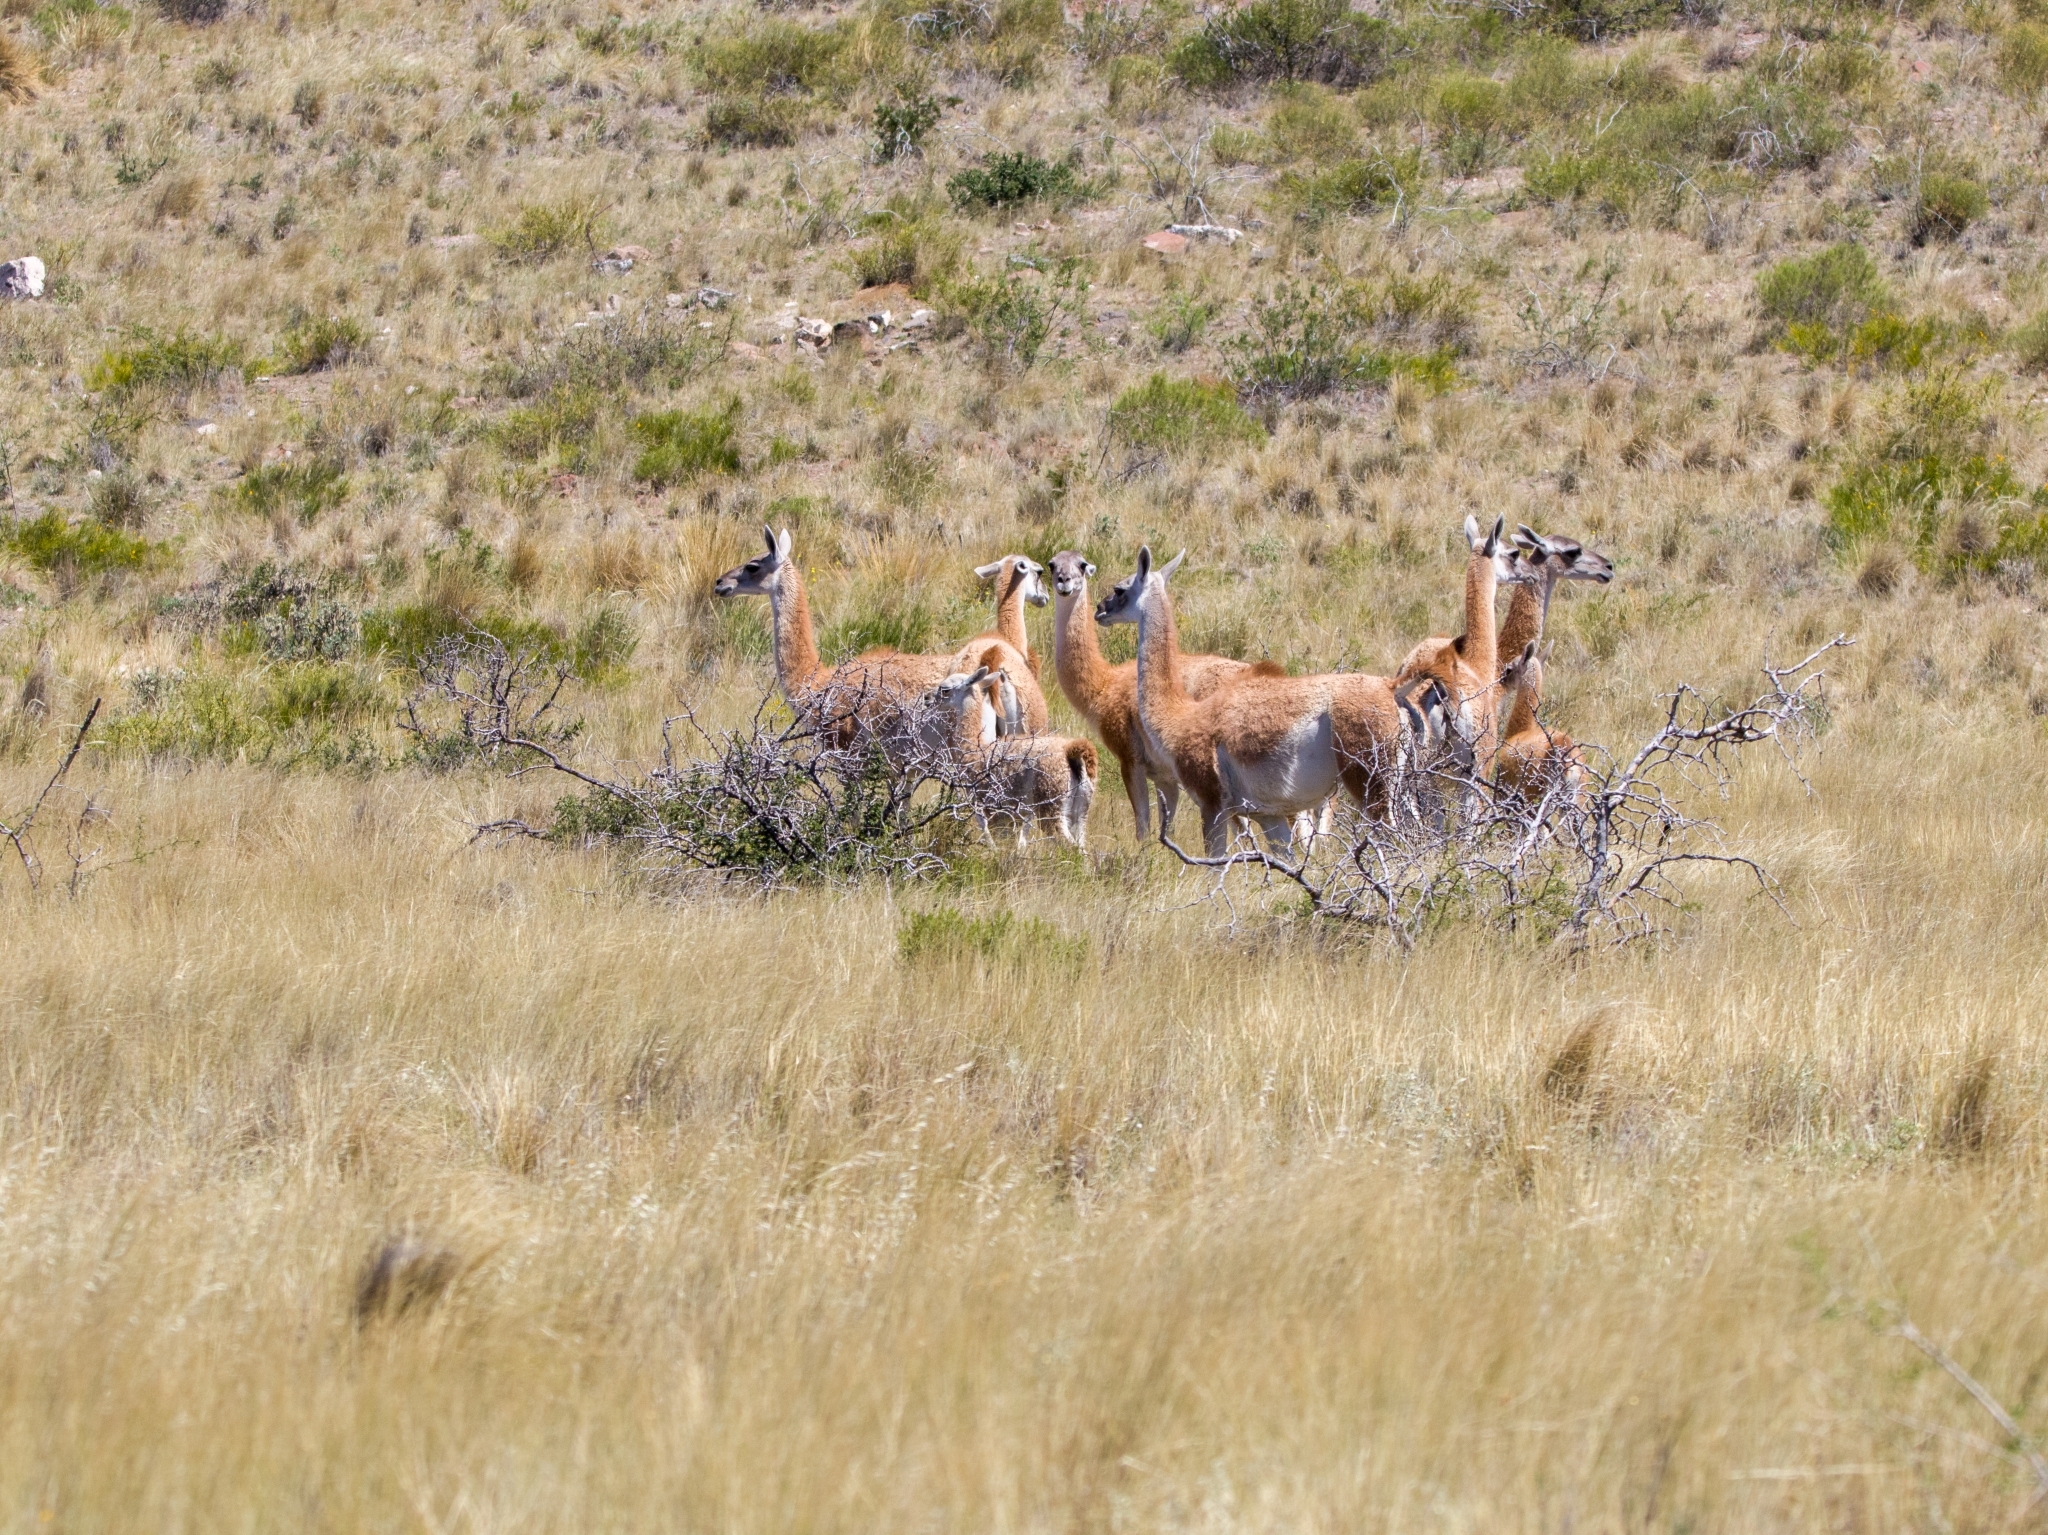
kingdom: Animalia
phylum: Chordata
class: Mammalia
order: Artiodactyla
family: Camelidae
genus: Lama
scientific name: Lama glama
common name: Llama
